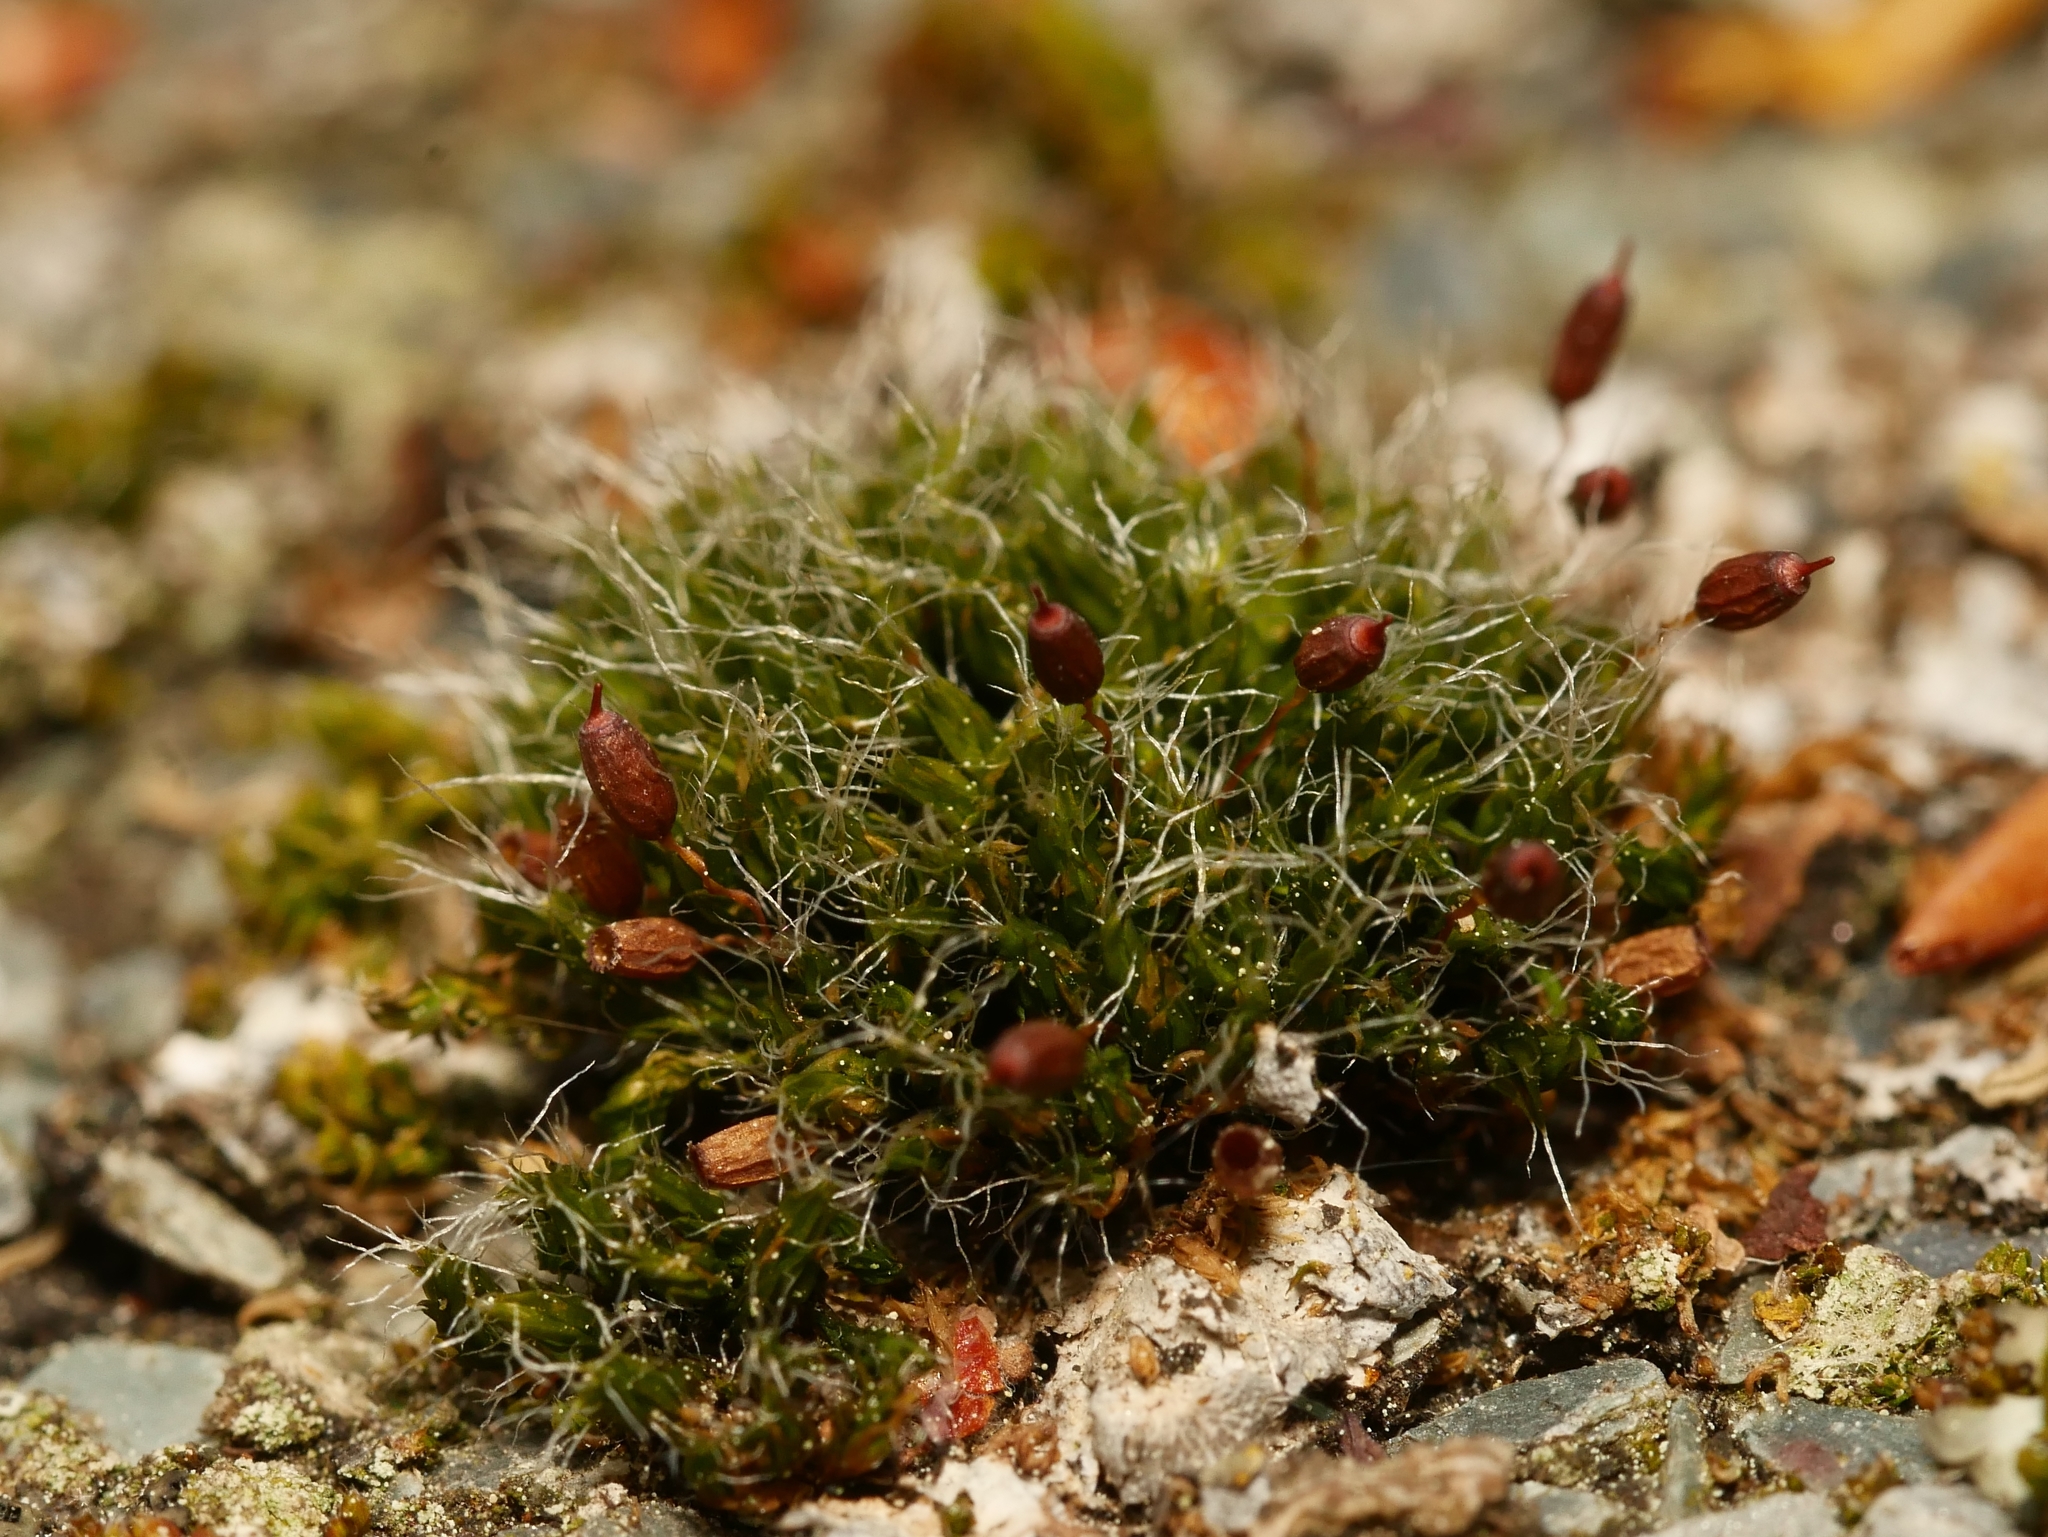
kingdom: Plantae
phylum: Bryophyta
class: Bryopsida
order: Grimmiales
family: Grimmiaceae
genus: Grimmia
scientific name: Grimmia pulvinata
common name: Grey-cushioned grimmia
